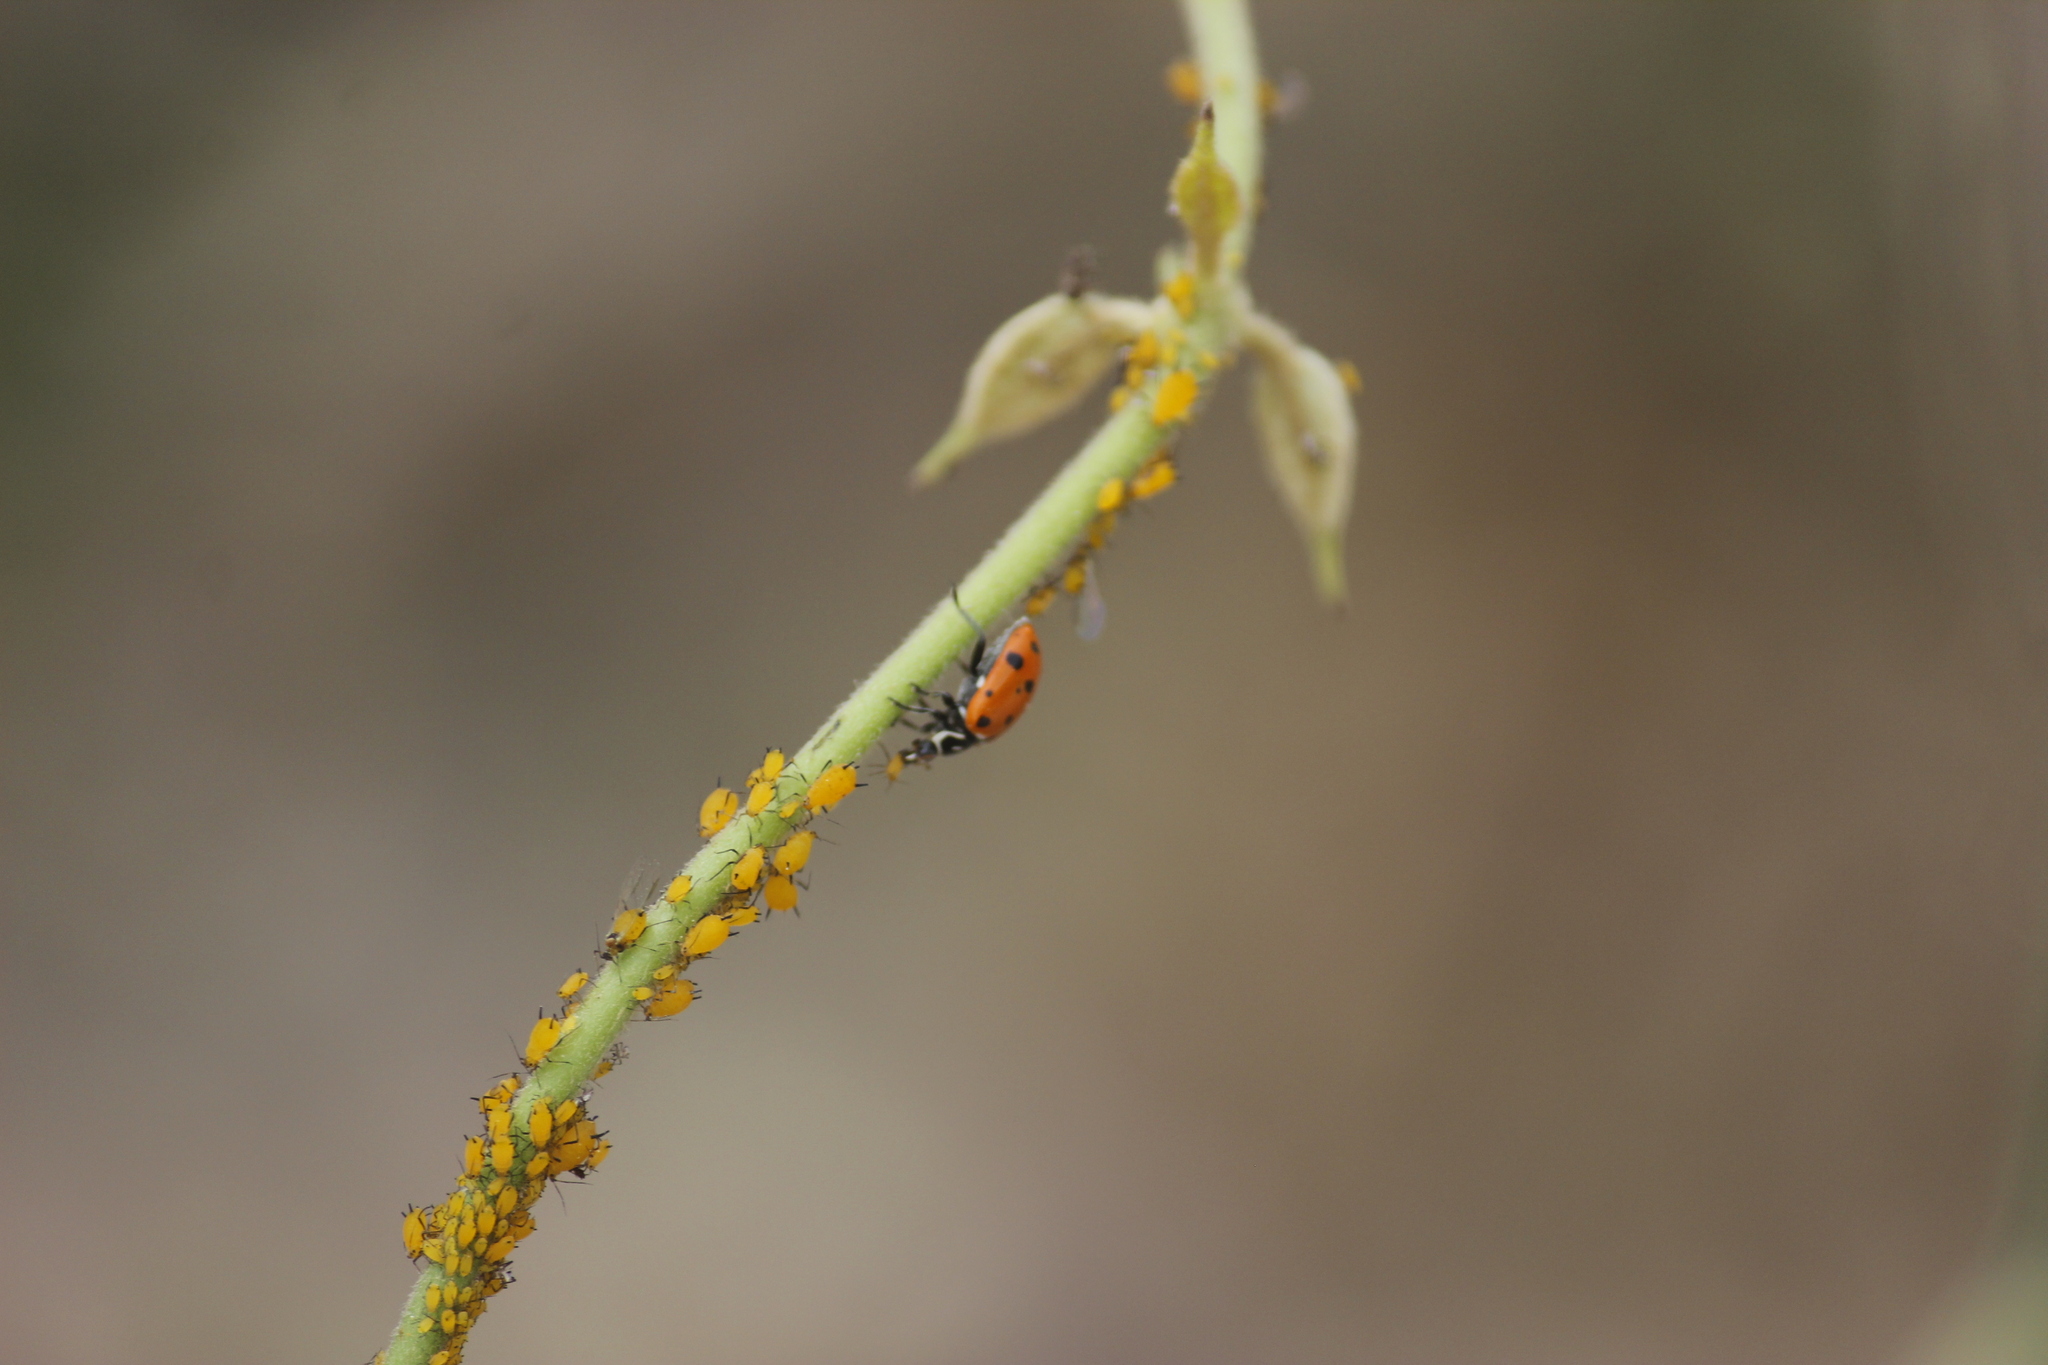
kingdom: Animalia
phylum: Arthropoda
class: Insecta
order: Coleoptera
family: Coccinellidae
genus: Hippodamia
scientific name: Hippodamia convergens
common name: Convergent lady beetle
